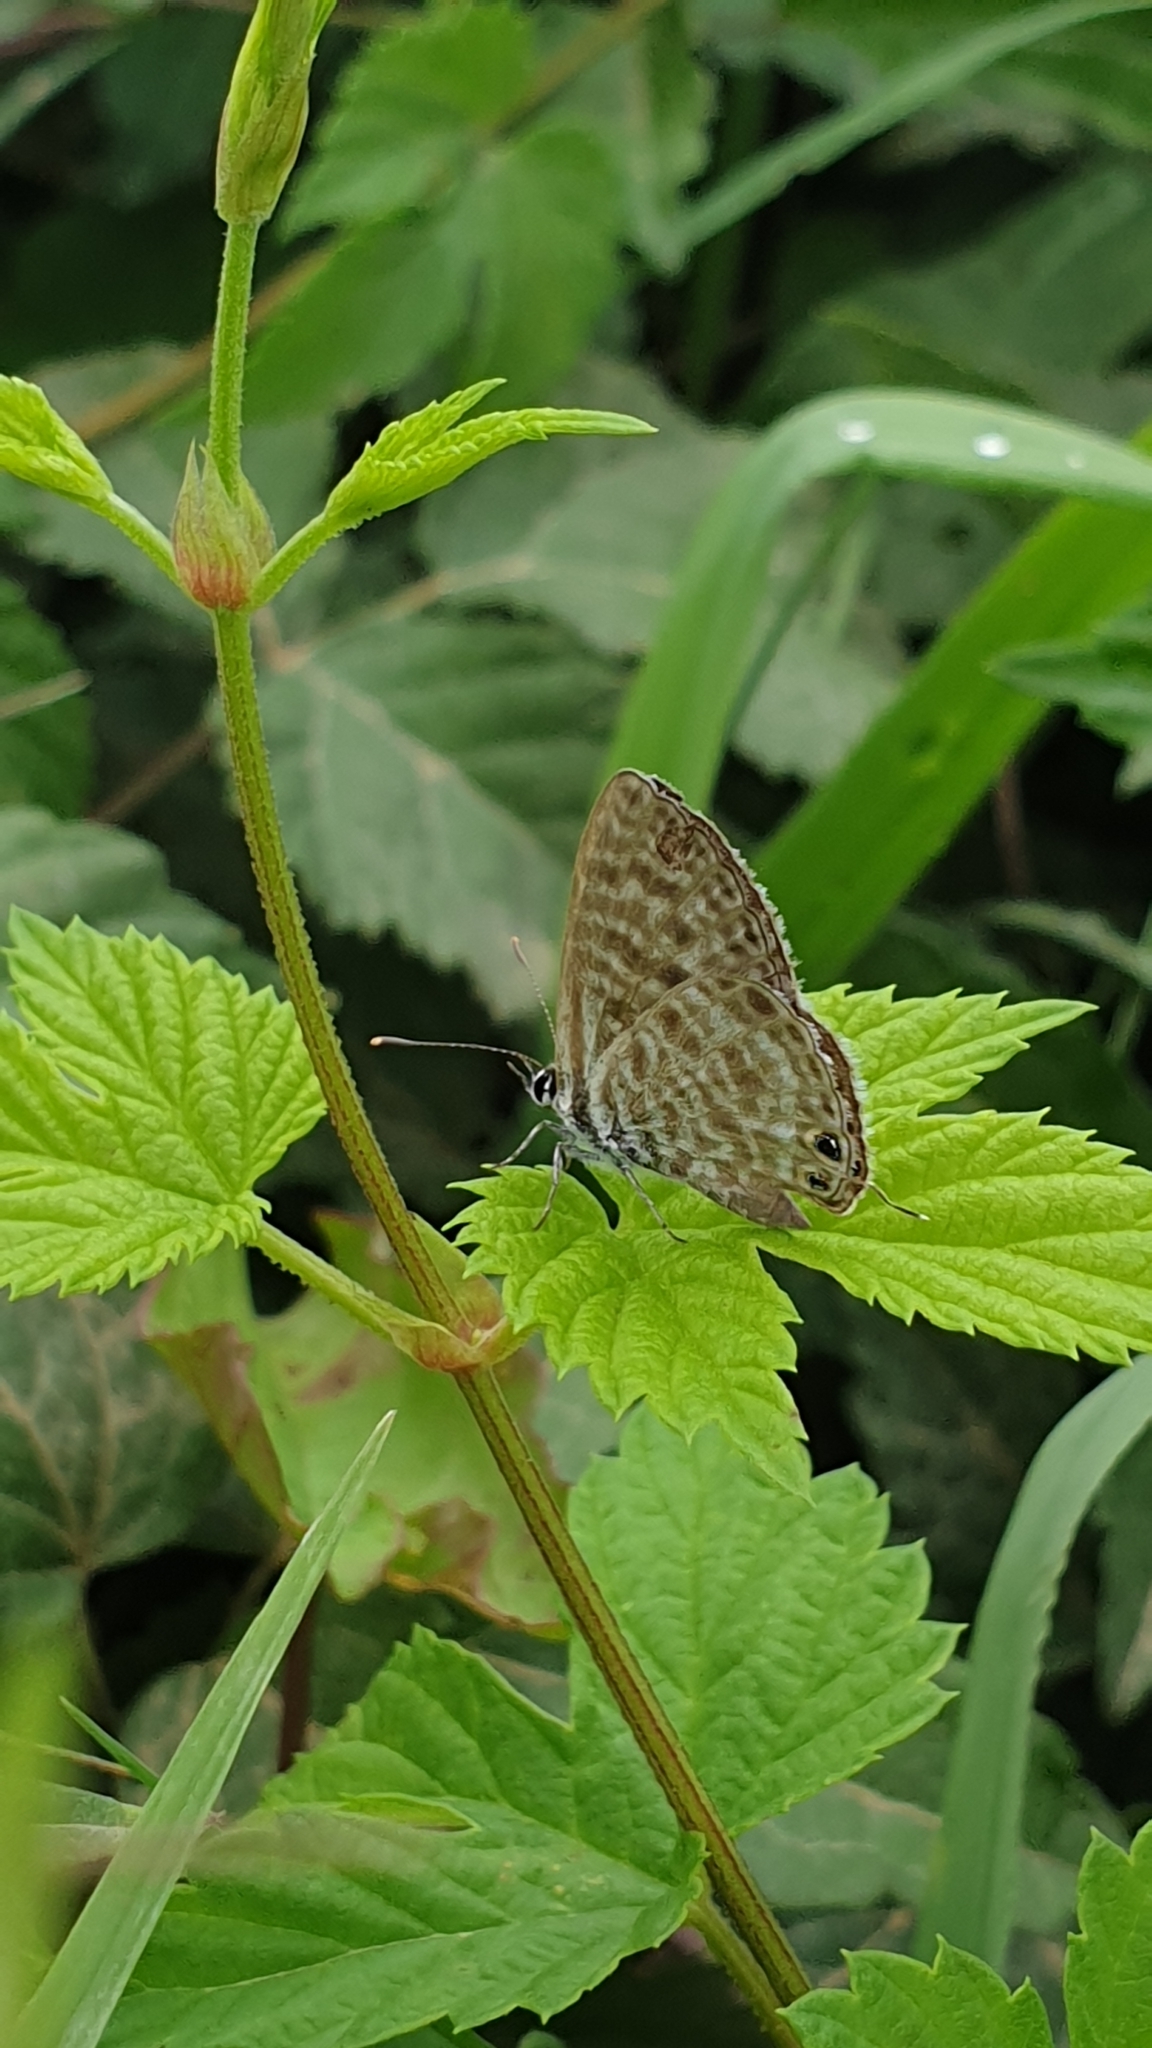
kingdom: Animalia
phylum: Arthropoda
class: Insecta
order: Lepidoptera
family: Lycaenidae
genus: Leptotes
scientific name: Leptotes pirithous
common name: Lang's short-tailed blue
